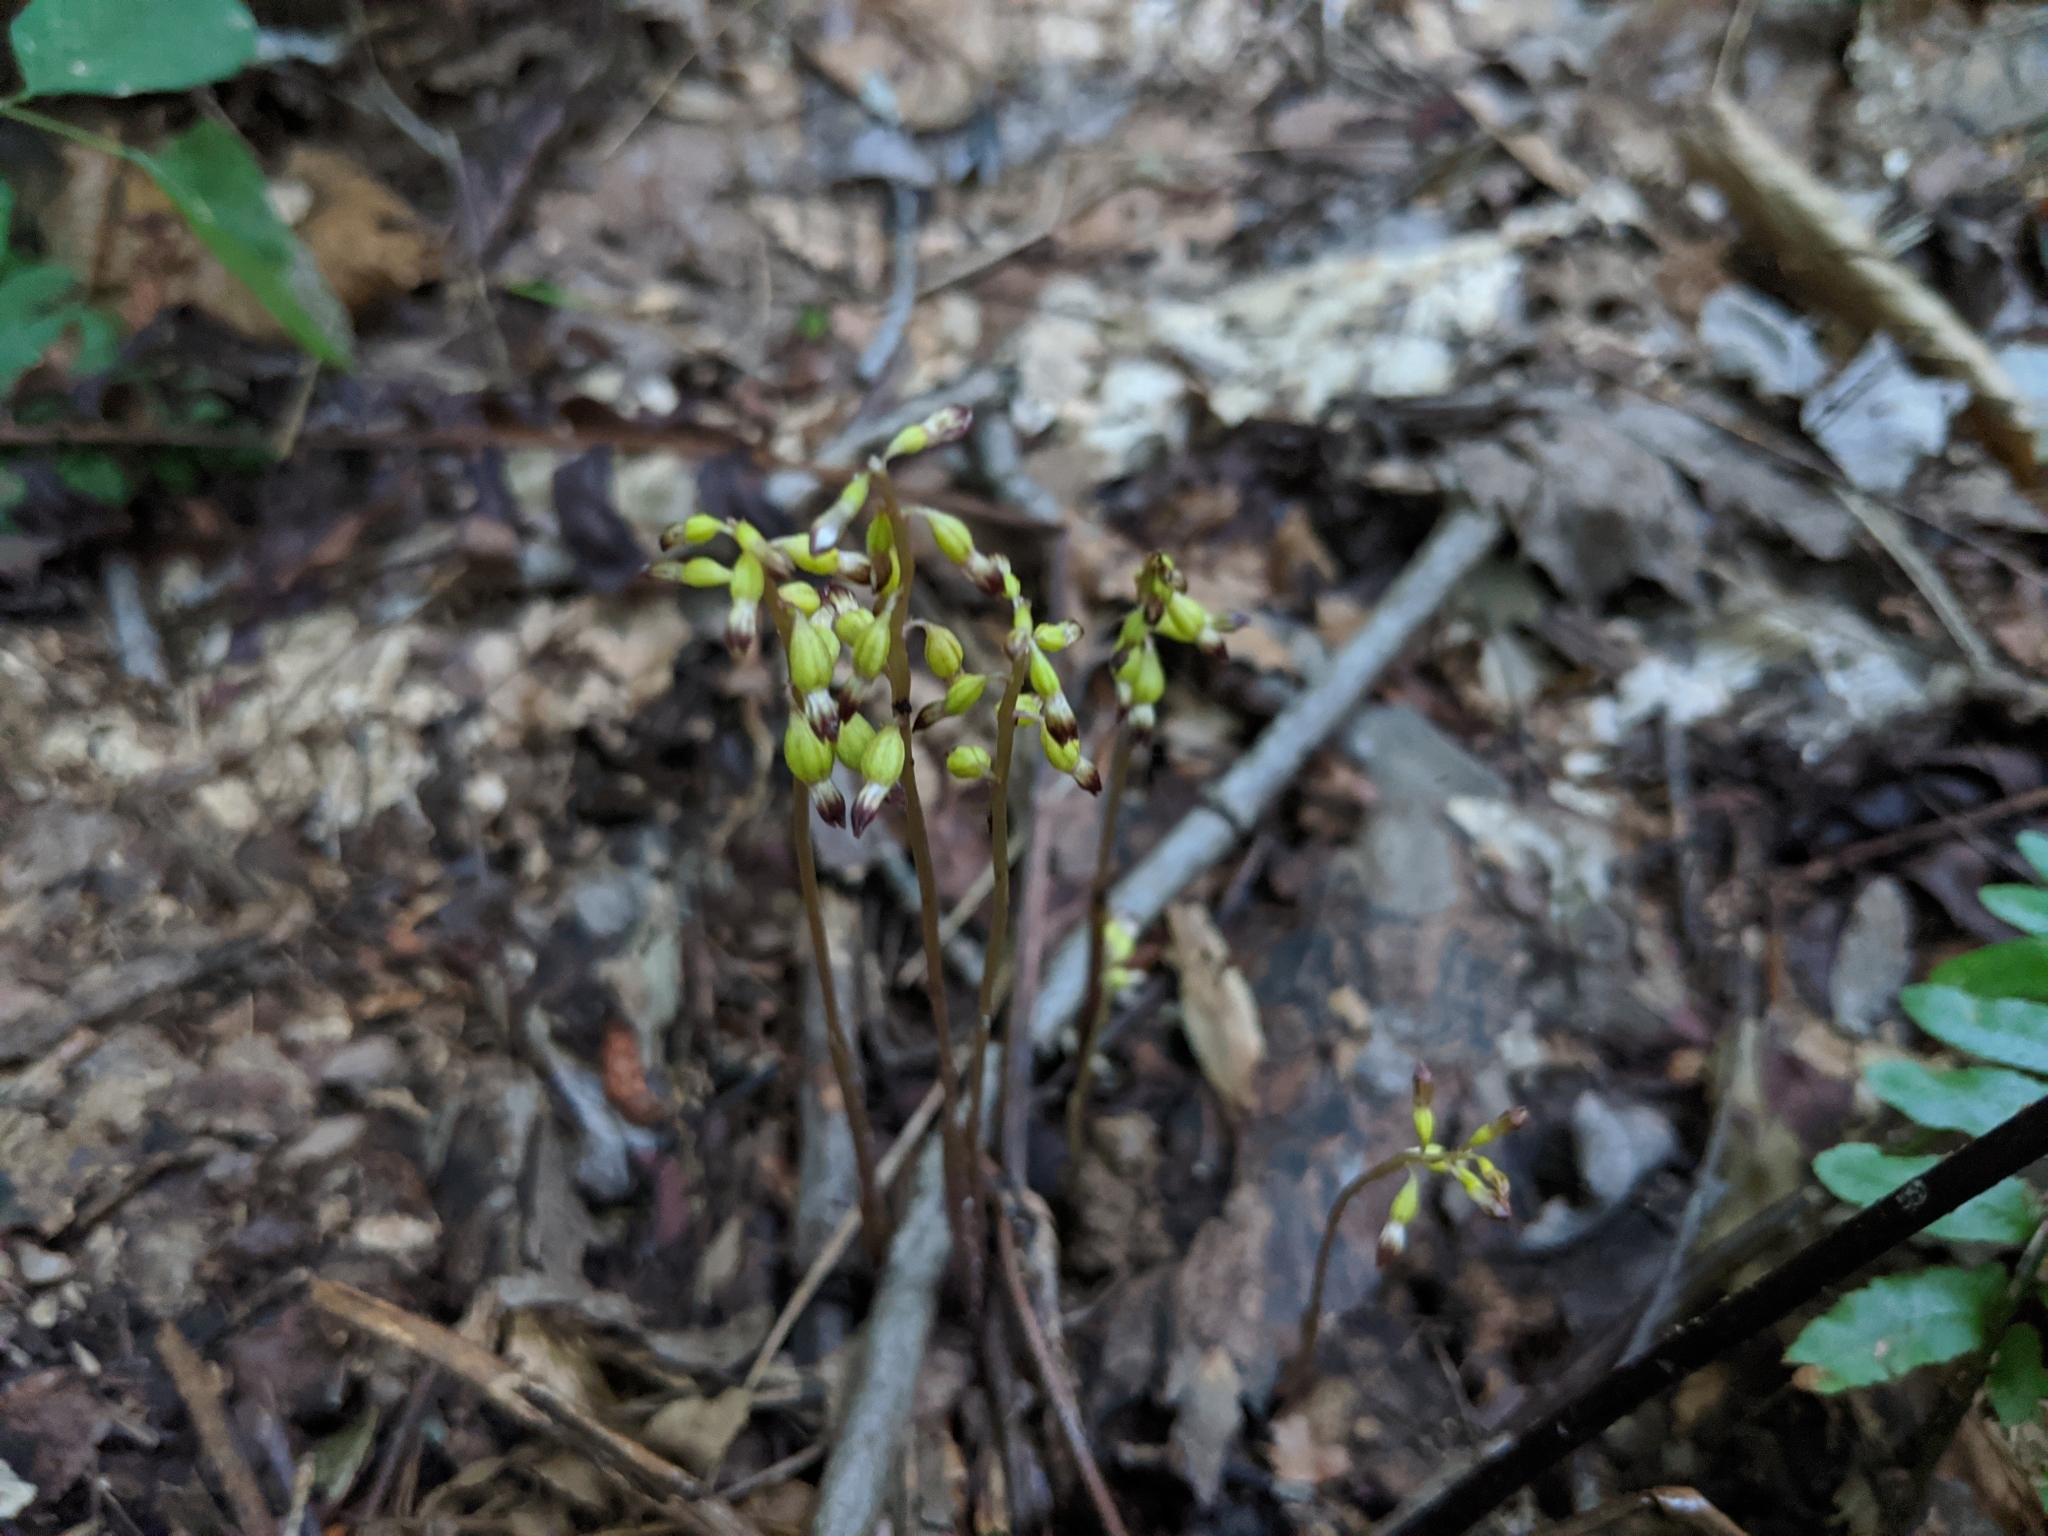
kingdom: Plantae
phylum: Tracheophyta
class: Liliopsida
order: Asparagales
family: Orchidaceae
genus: Corallorhiza
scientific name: Corallorhiza odontorhiza
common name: Autumn coralroot
